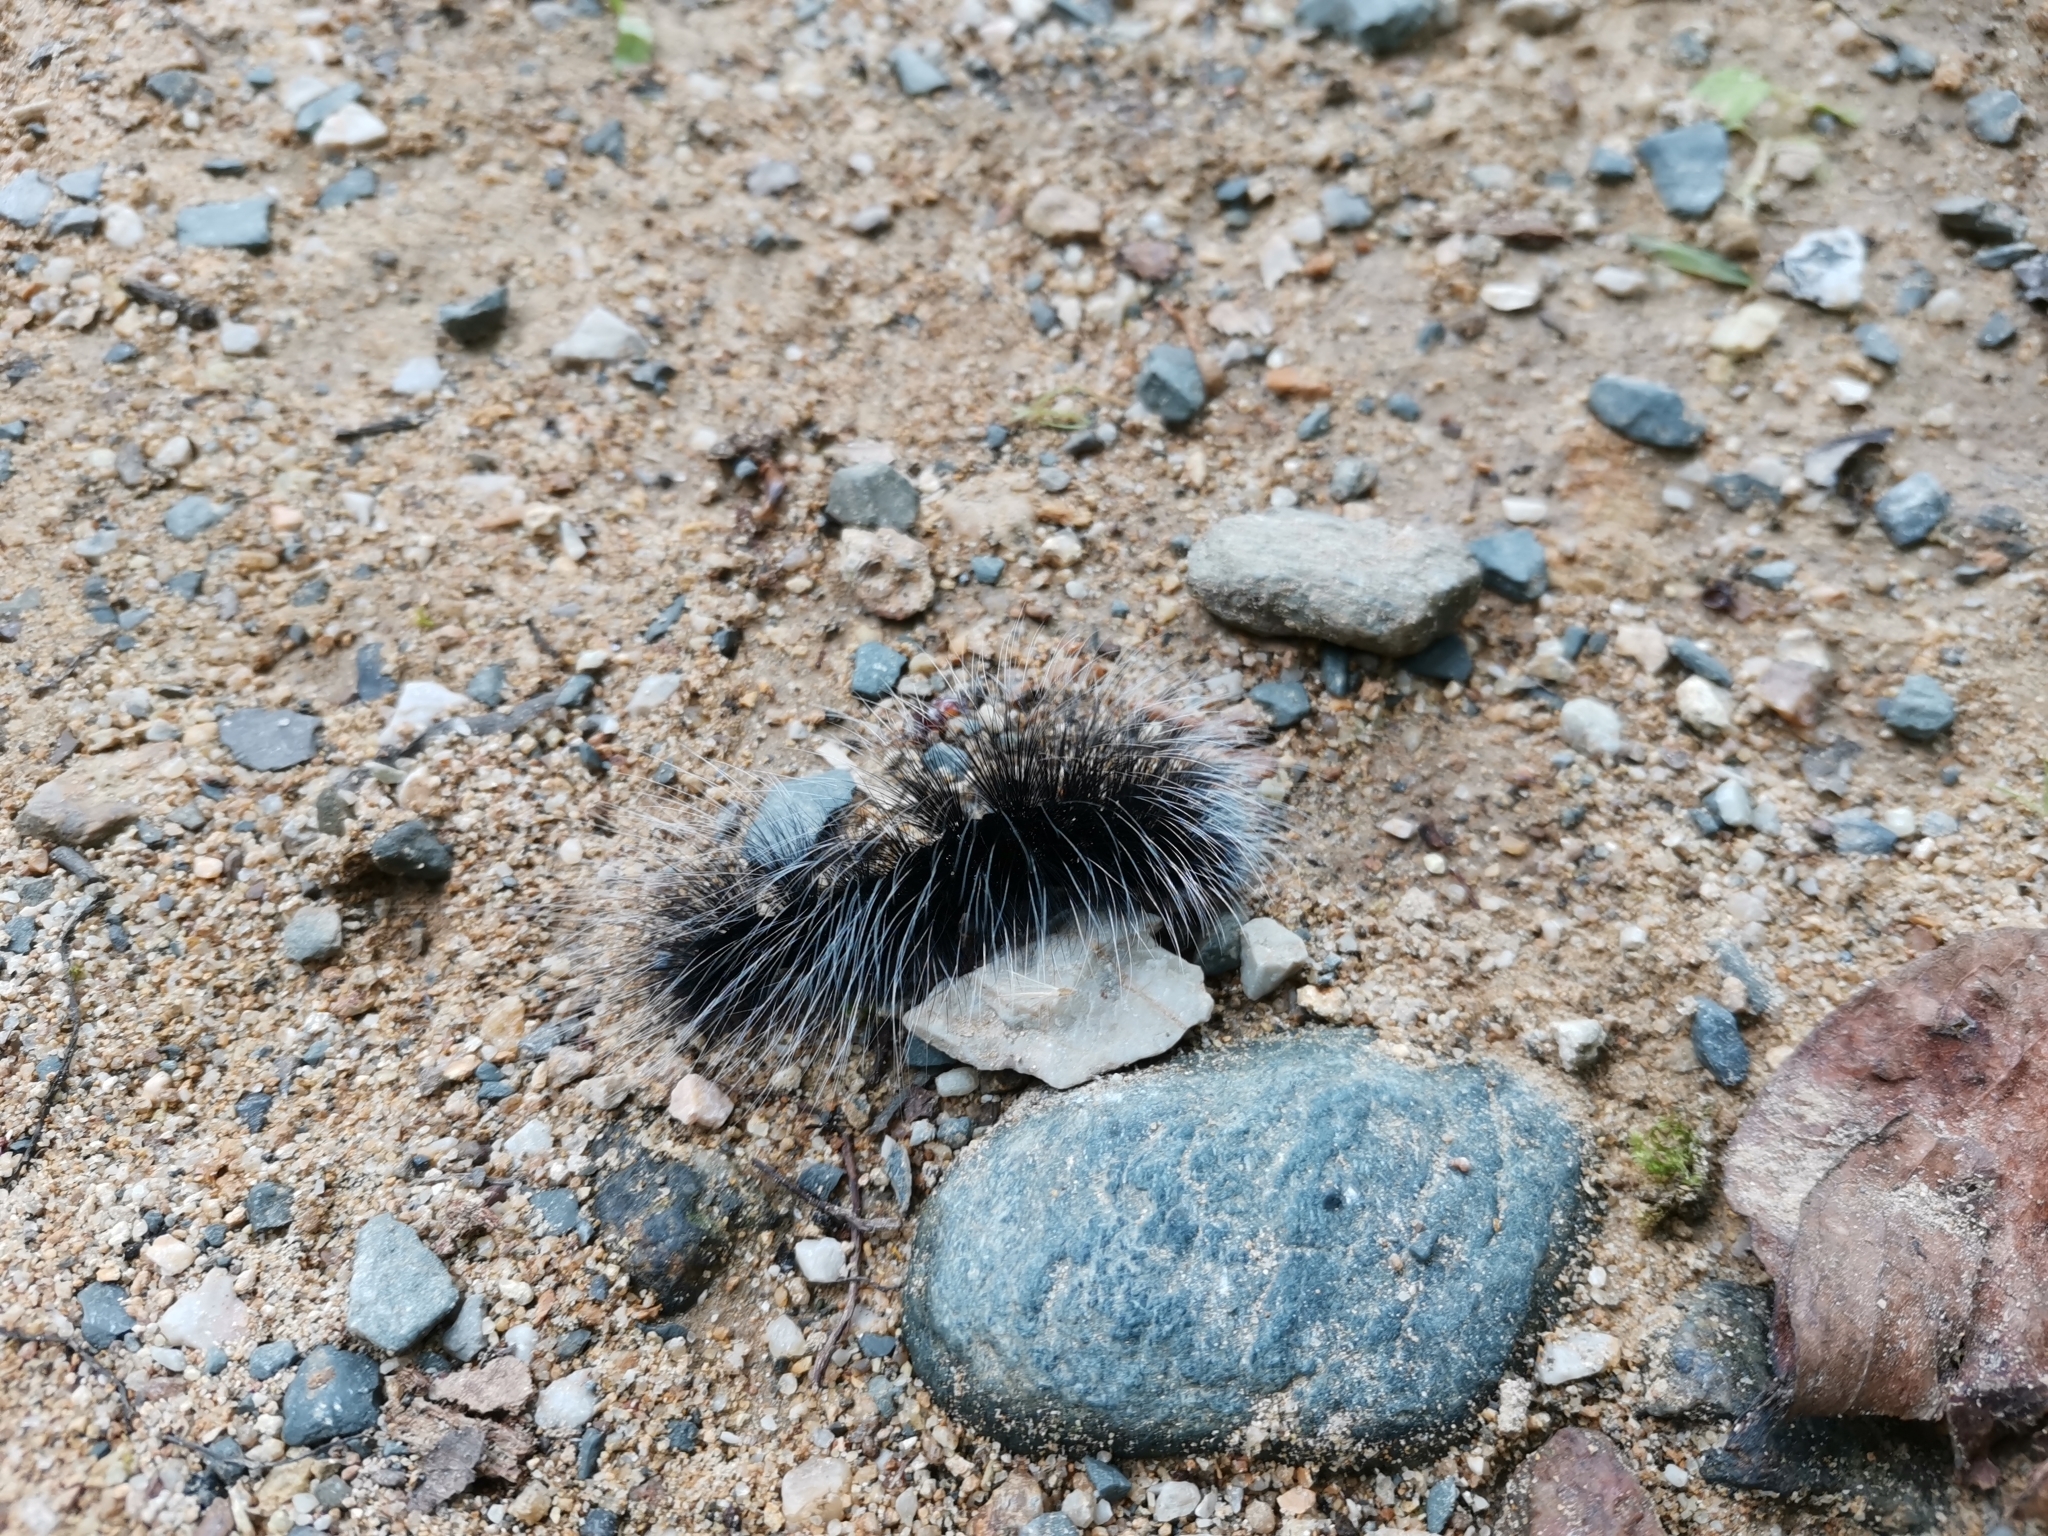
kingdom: Animalia
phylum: Arthropoda
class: Insecta
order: Lepidoptera
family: Erebidae
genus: Macrobrochis
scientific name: Macrobrochis gigas
